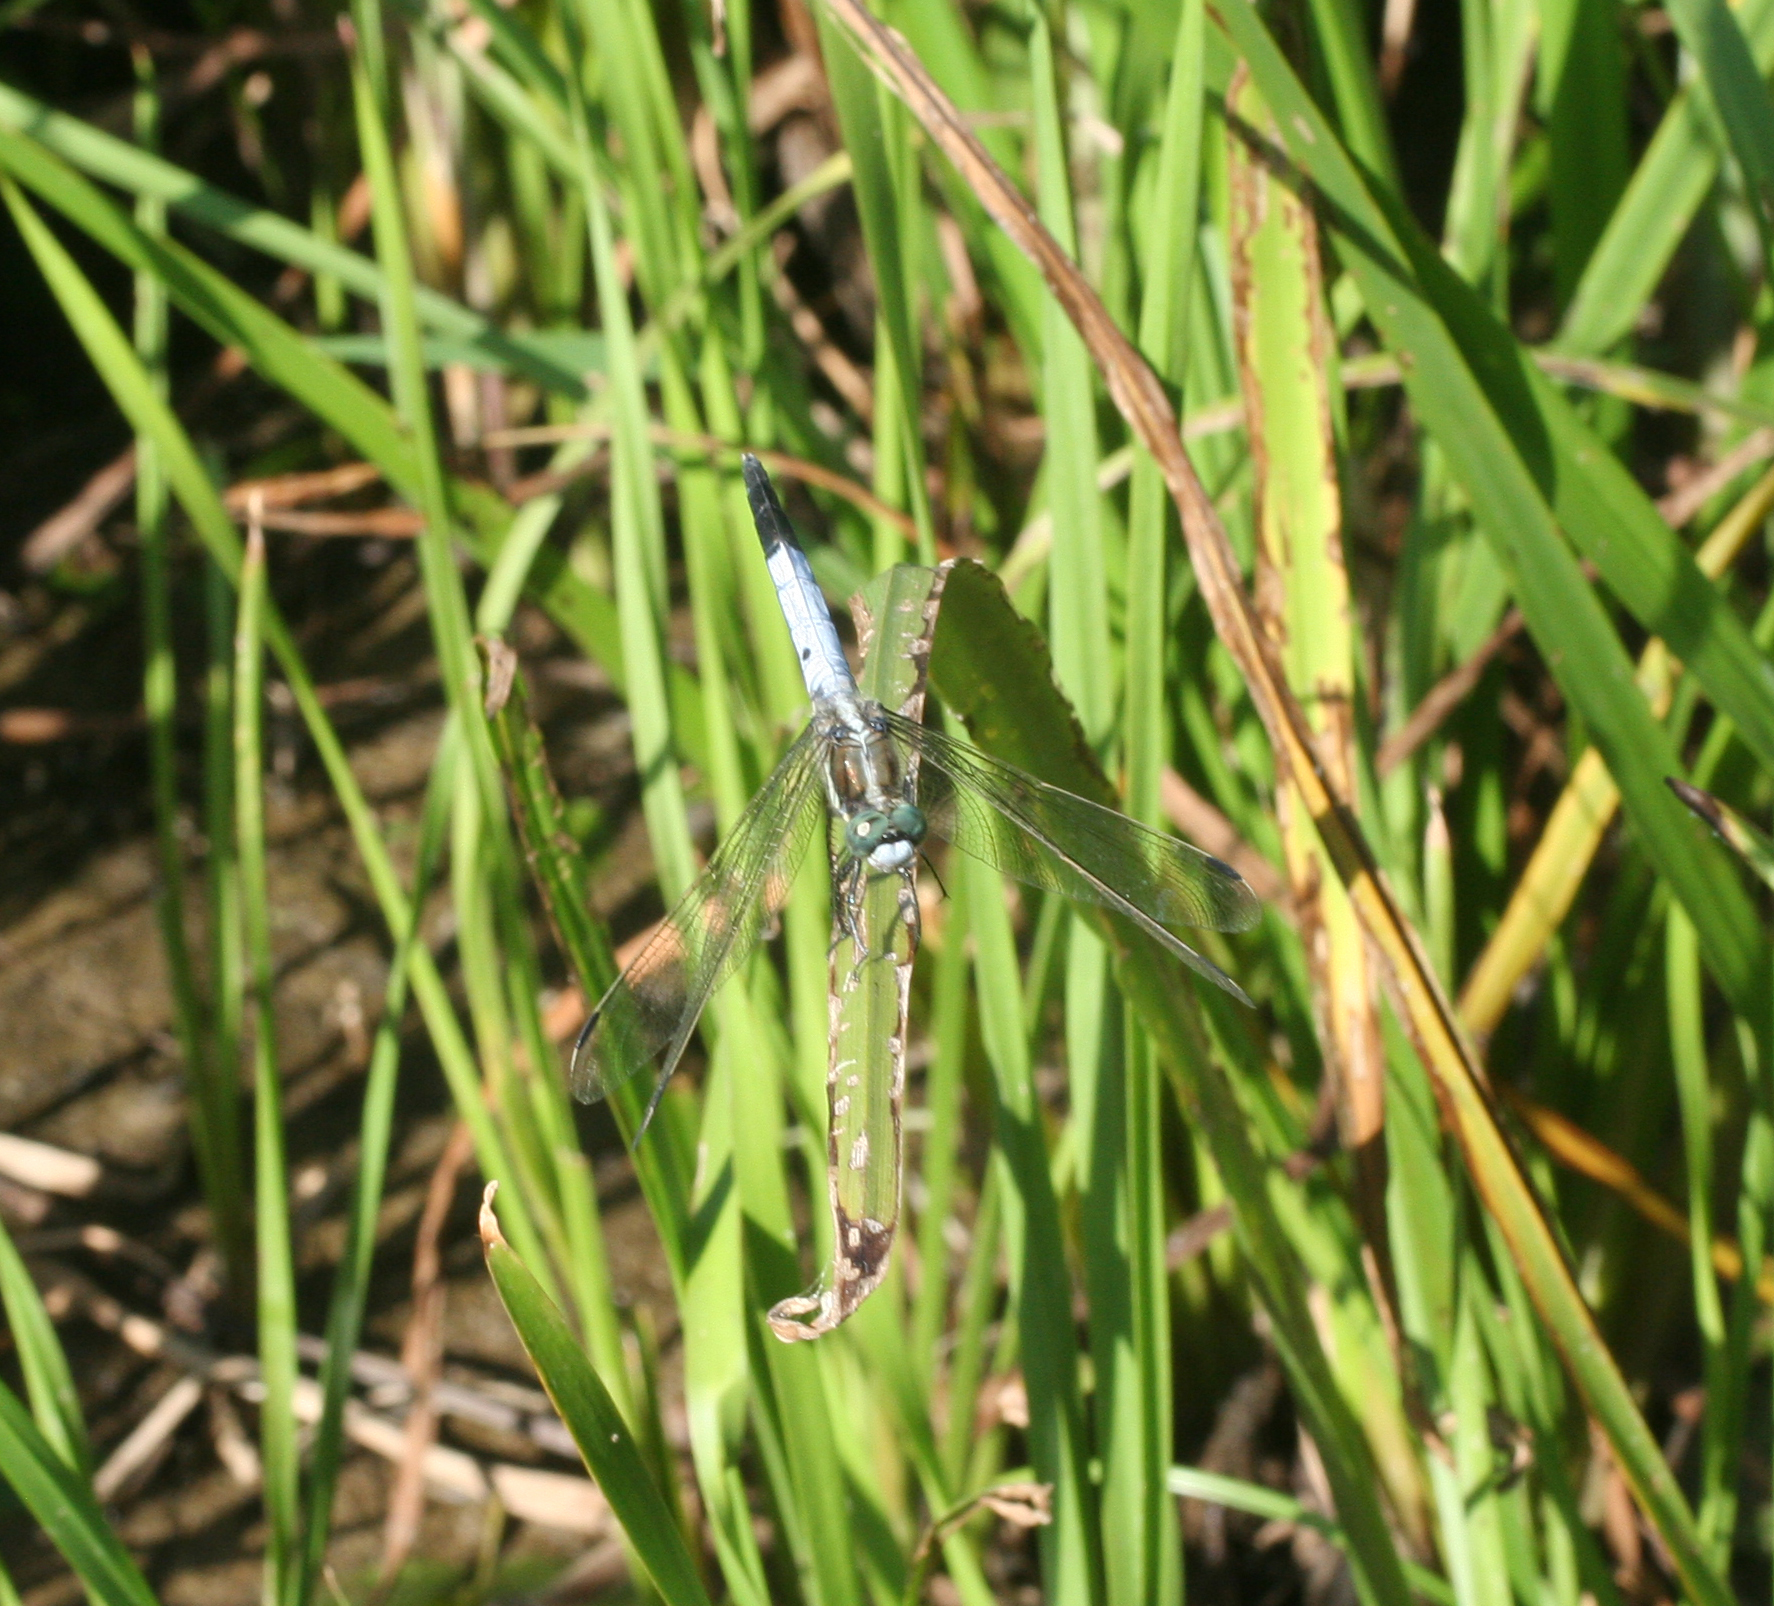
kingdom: Animalia
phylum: Arthropoda
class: Insecta
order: Odonata
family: Libellulidae
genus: Orthetrum
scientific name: Orthetrum albistylum
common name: White-tailed skimmer
